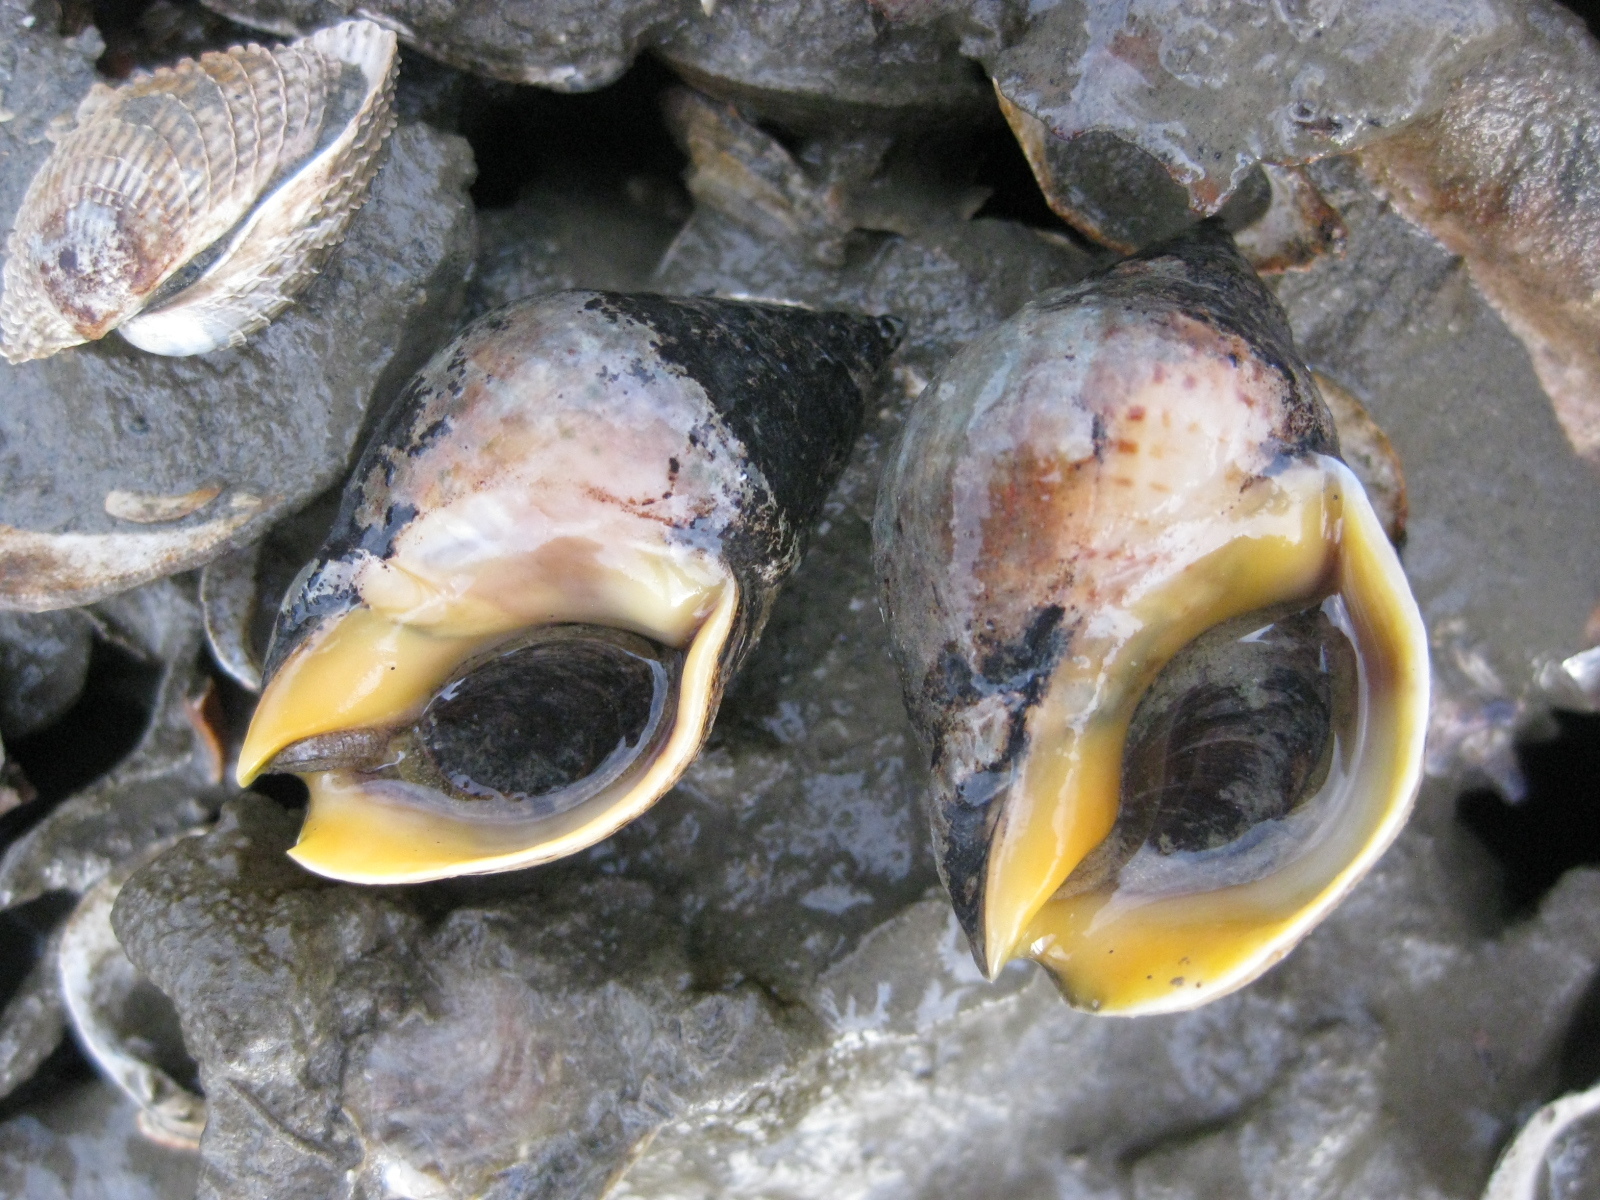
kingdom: Animalia
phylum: Mollusca
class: Gastropoda
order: Neogastropoda
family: Cominellidae
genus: Cominella
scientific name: Cominella adspersa
